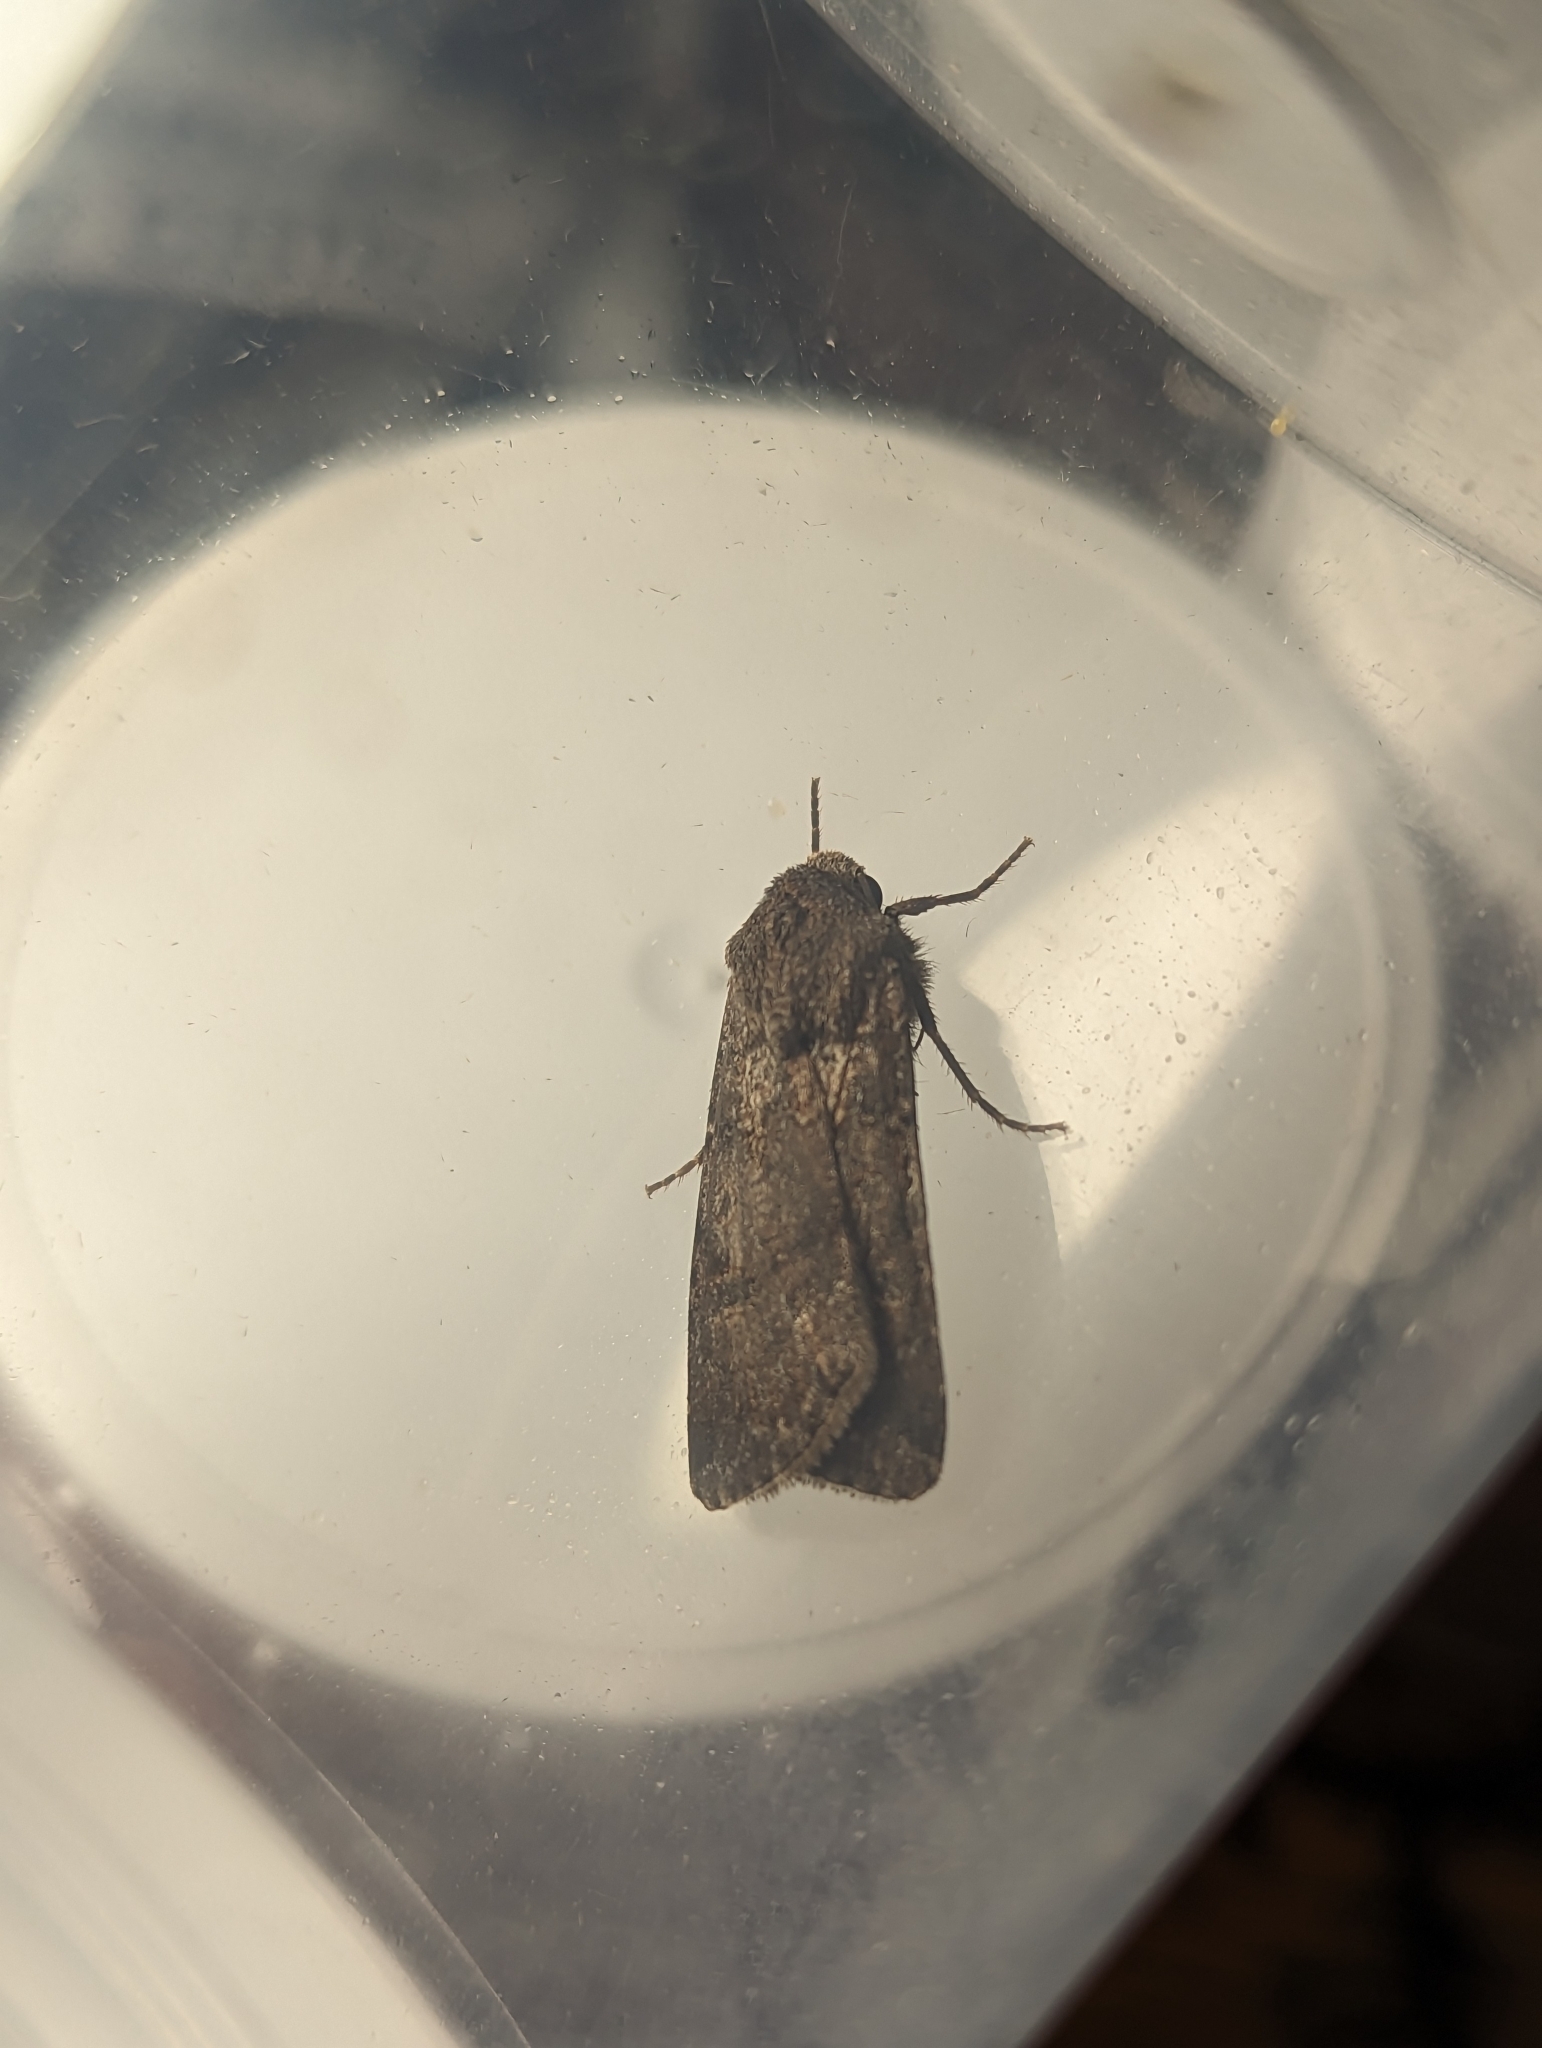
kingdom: Animalia
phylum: Arthropoda
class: Insecta
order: Lepidoptera
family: Noctuidae
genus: Agrotis
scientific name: Agrotis segetum
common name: Turnip moth
